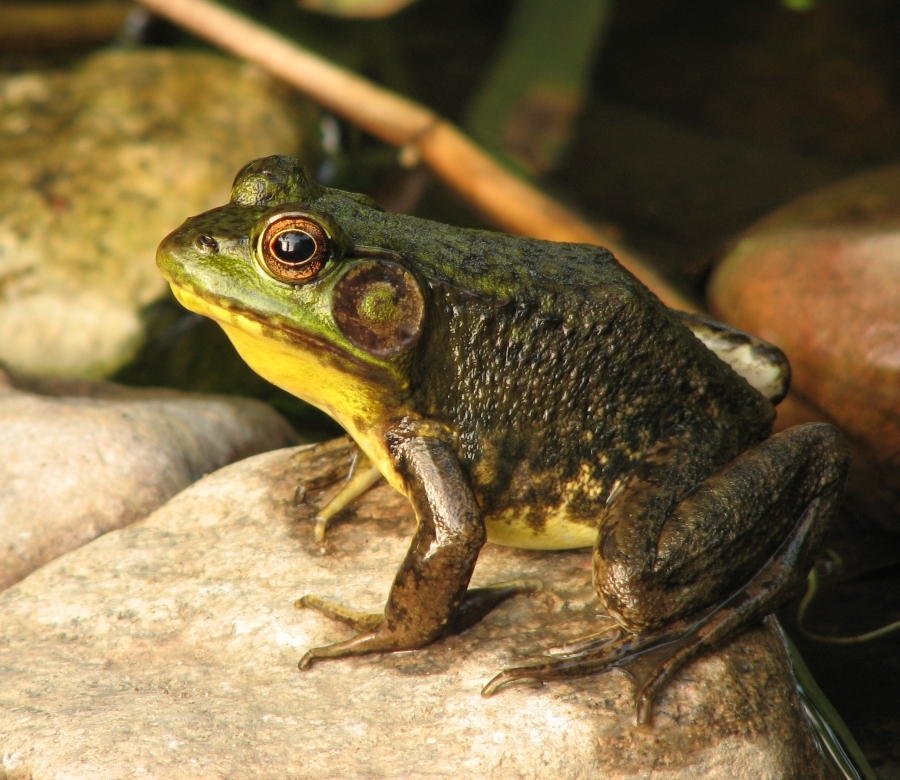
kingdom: Animalia
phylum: Chordata
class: Amphibia
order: Anura
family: Ranidae
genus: Lithobates
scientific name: Lithobates catesbeianus
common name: American bullfrog
